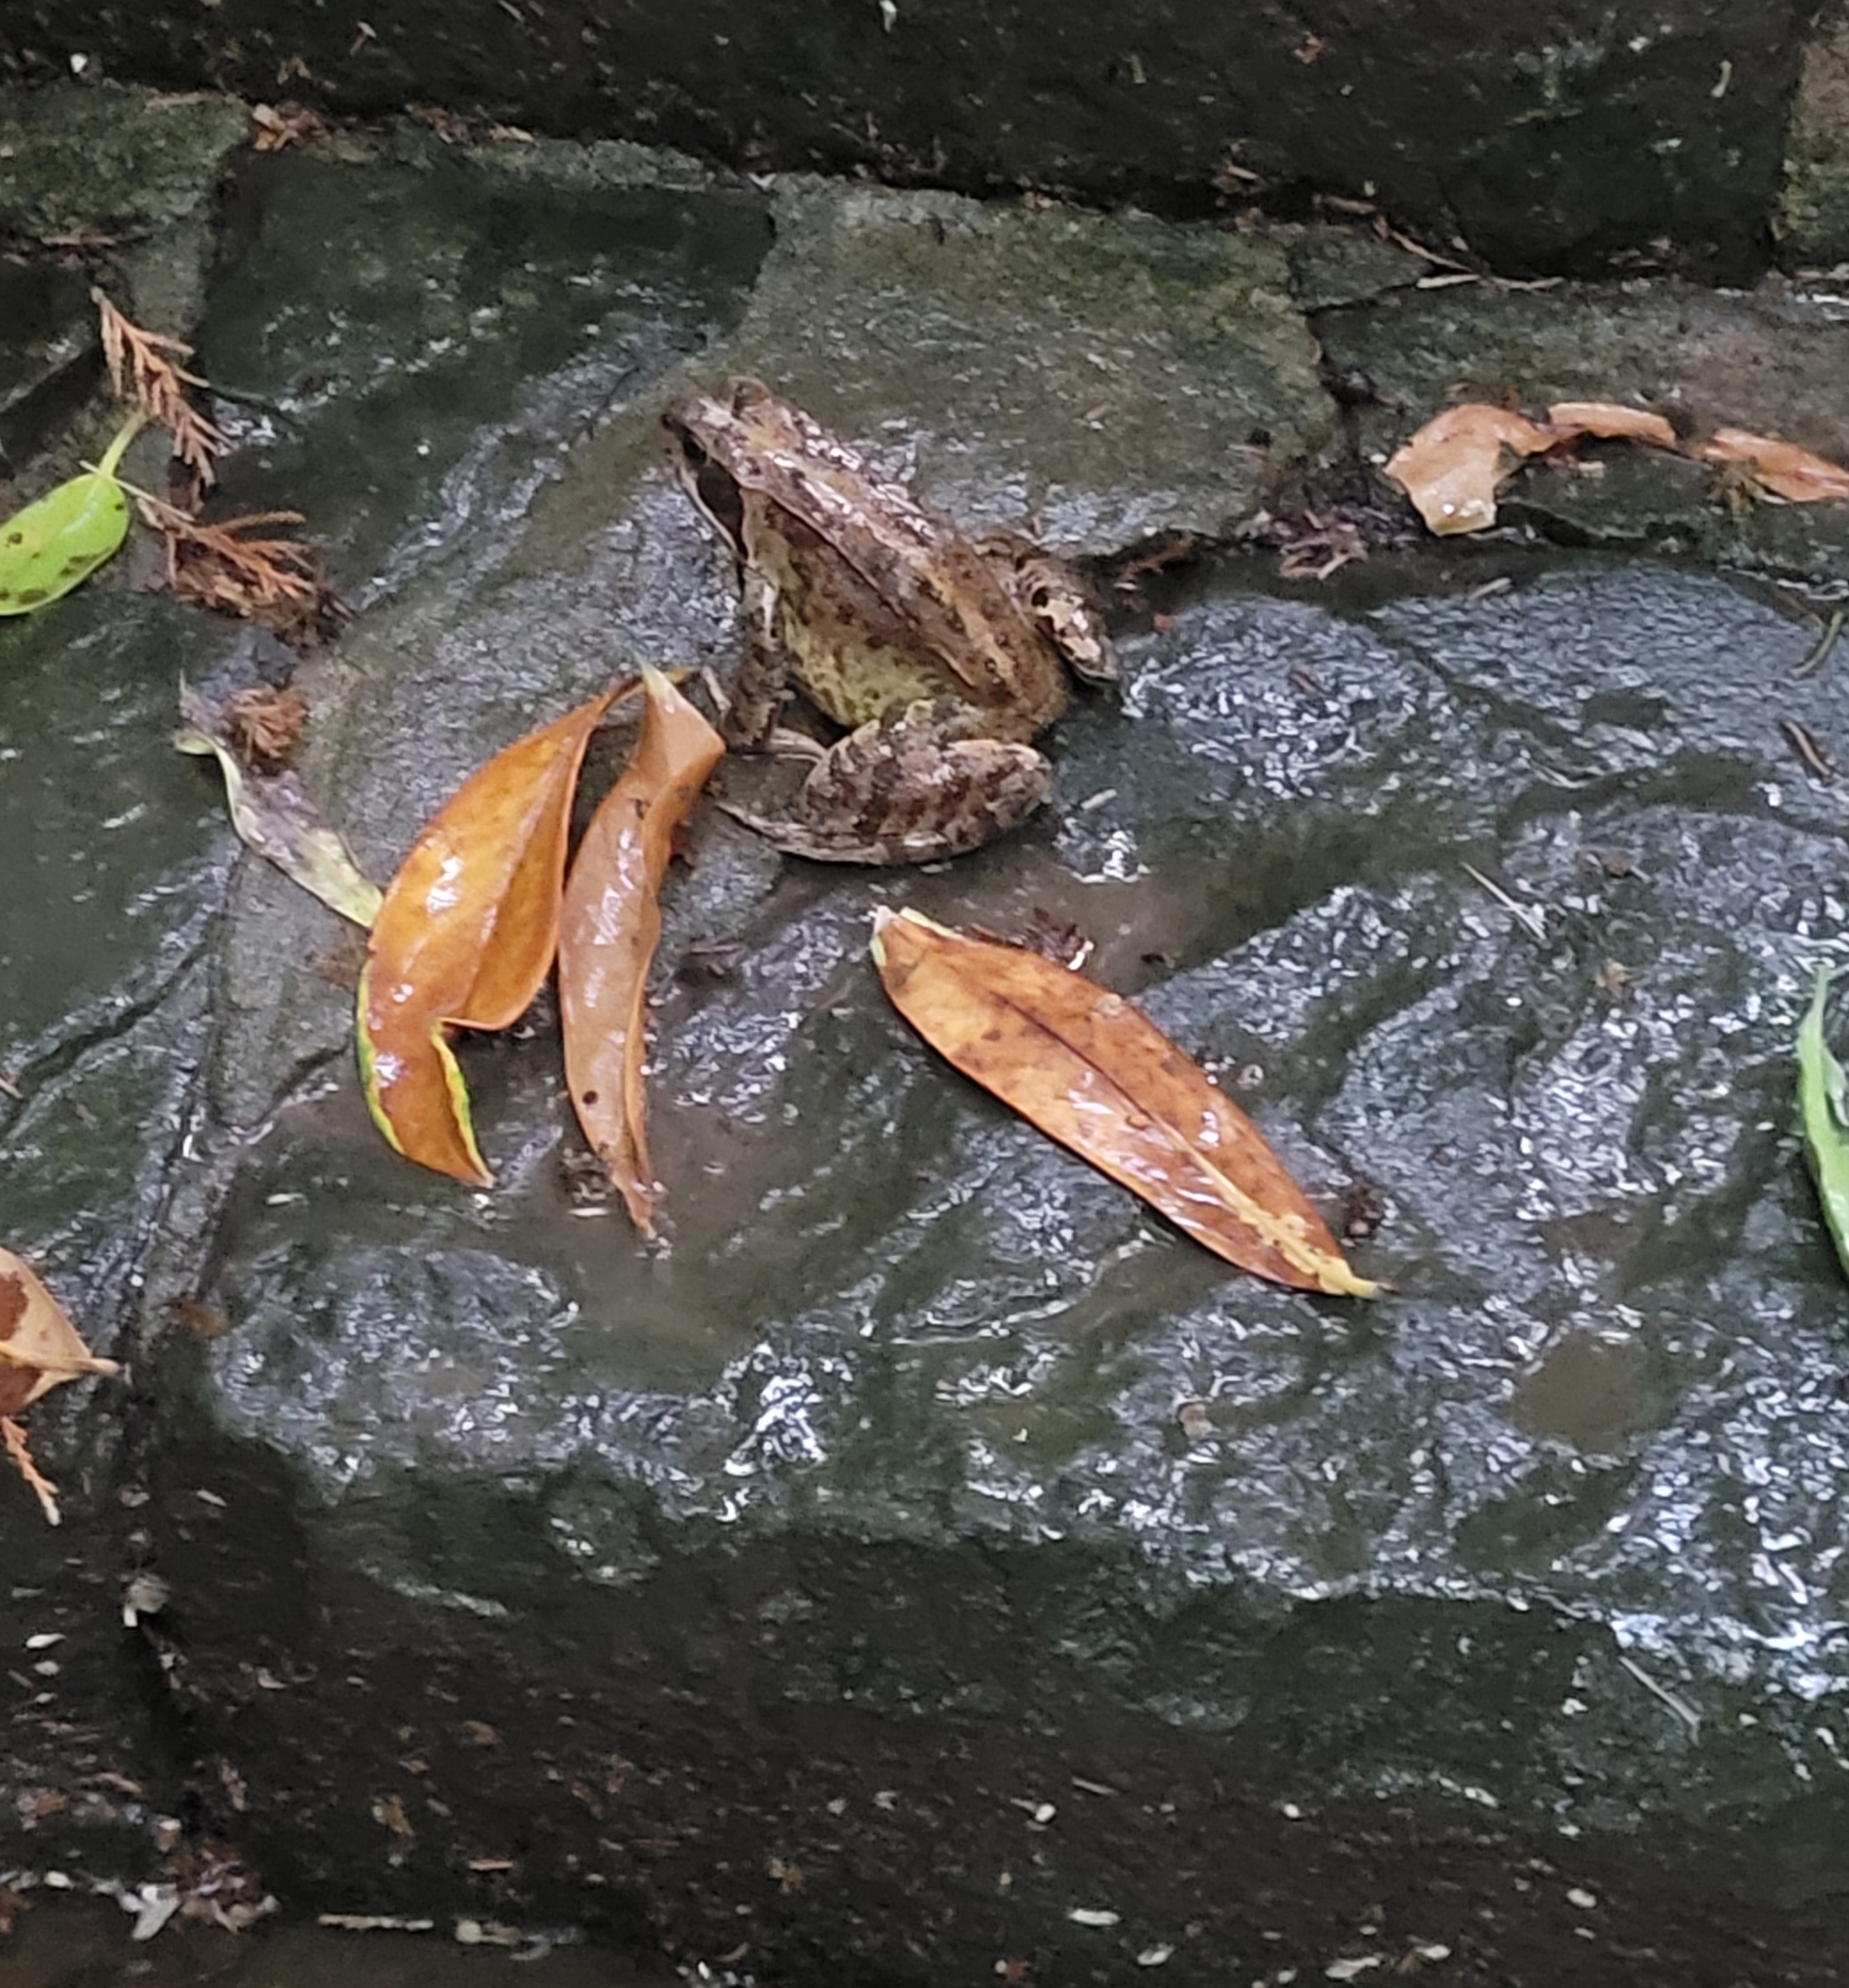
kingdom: Animalia
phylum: Chordata
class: Amphibia
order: Anura
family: Ranidae
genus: Rana
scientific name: Rana temporaria
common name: Common frog
